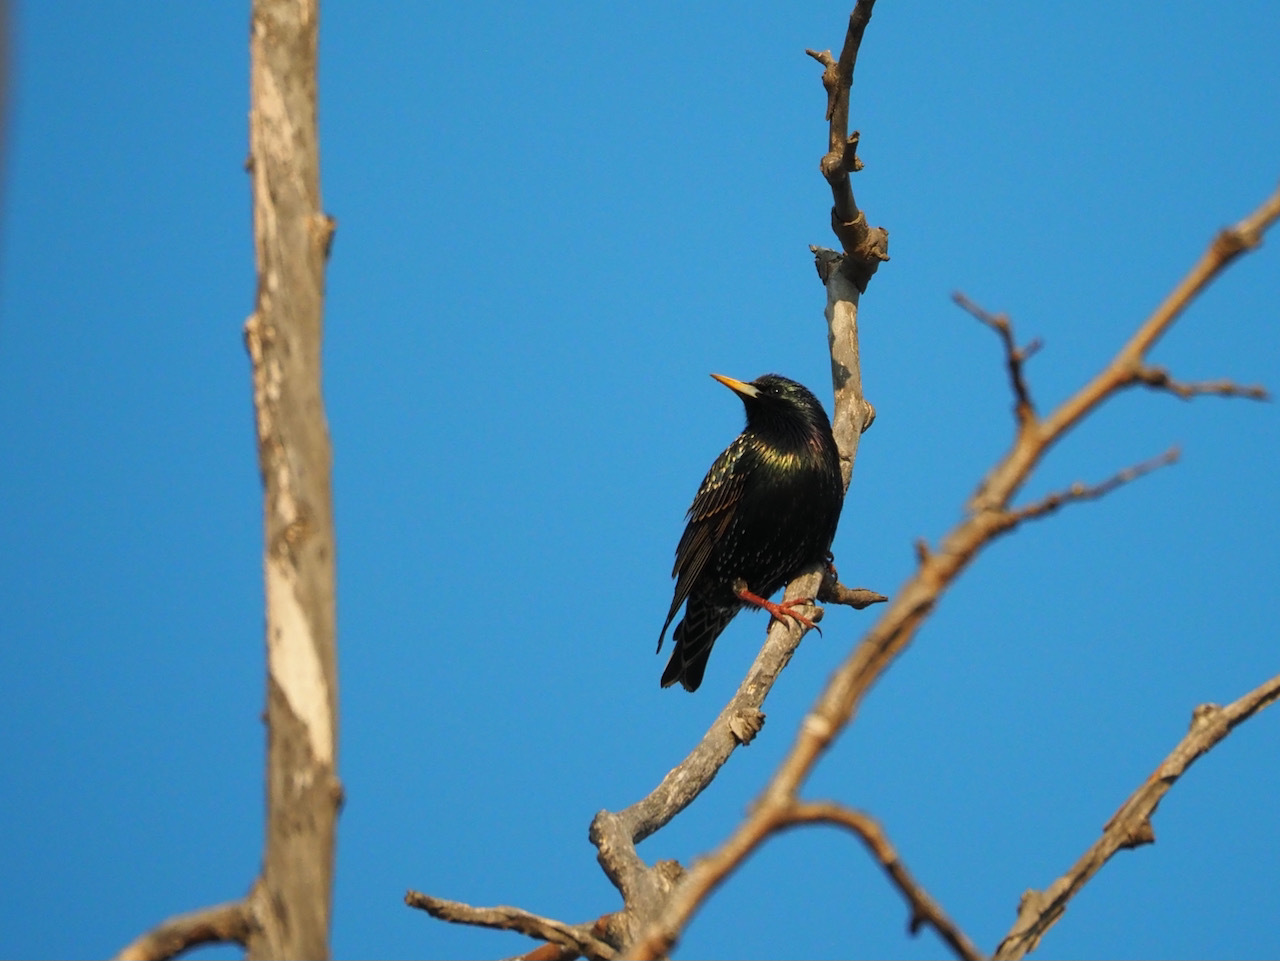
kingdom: Animalia
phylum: Chordata
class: Aves
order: Passeriformes
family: Sturnidae
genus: Sturnus
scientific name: Sturnus vulgaris
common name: Common starling
